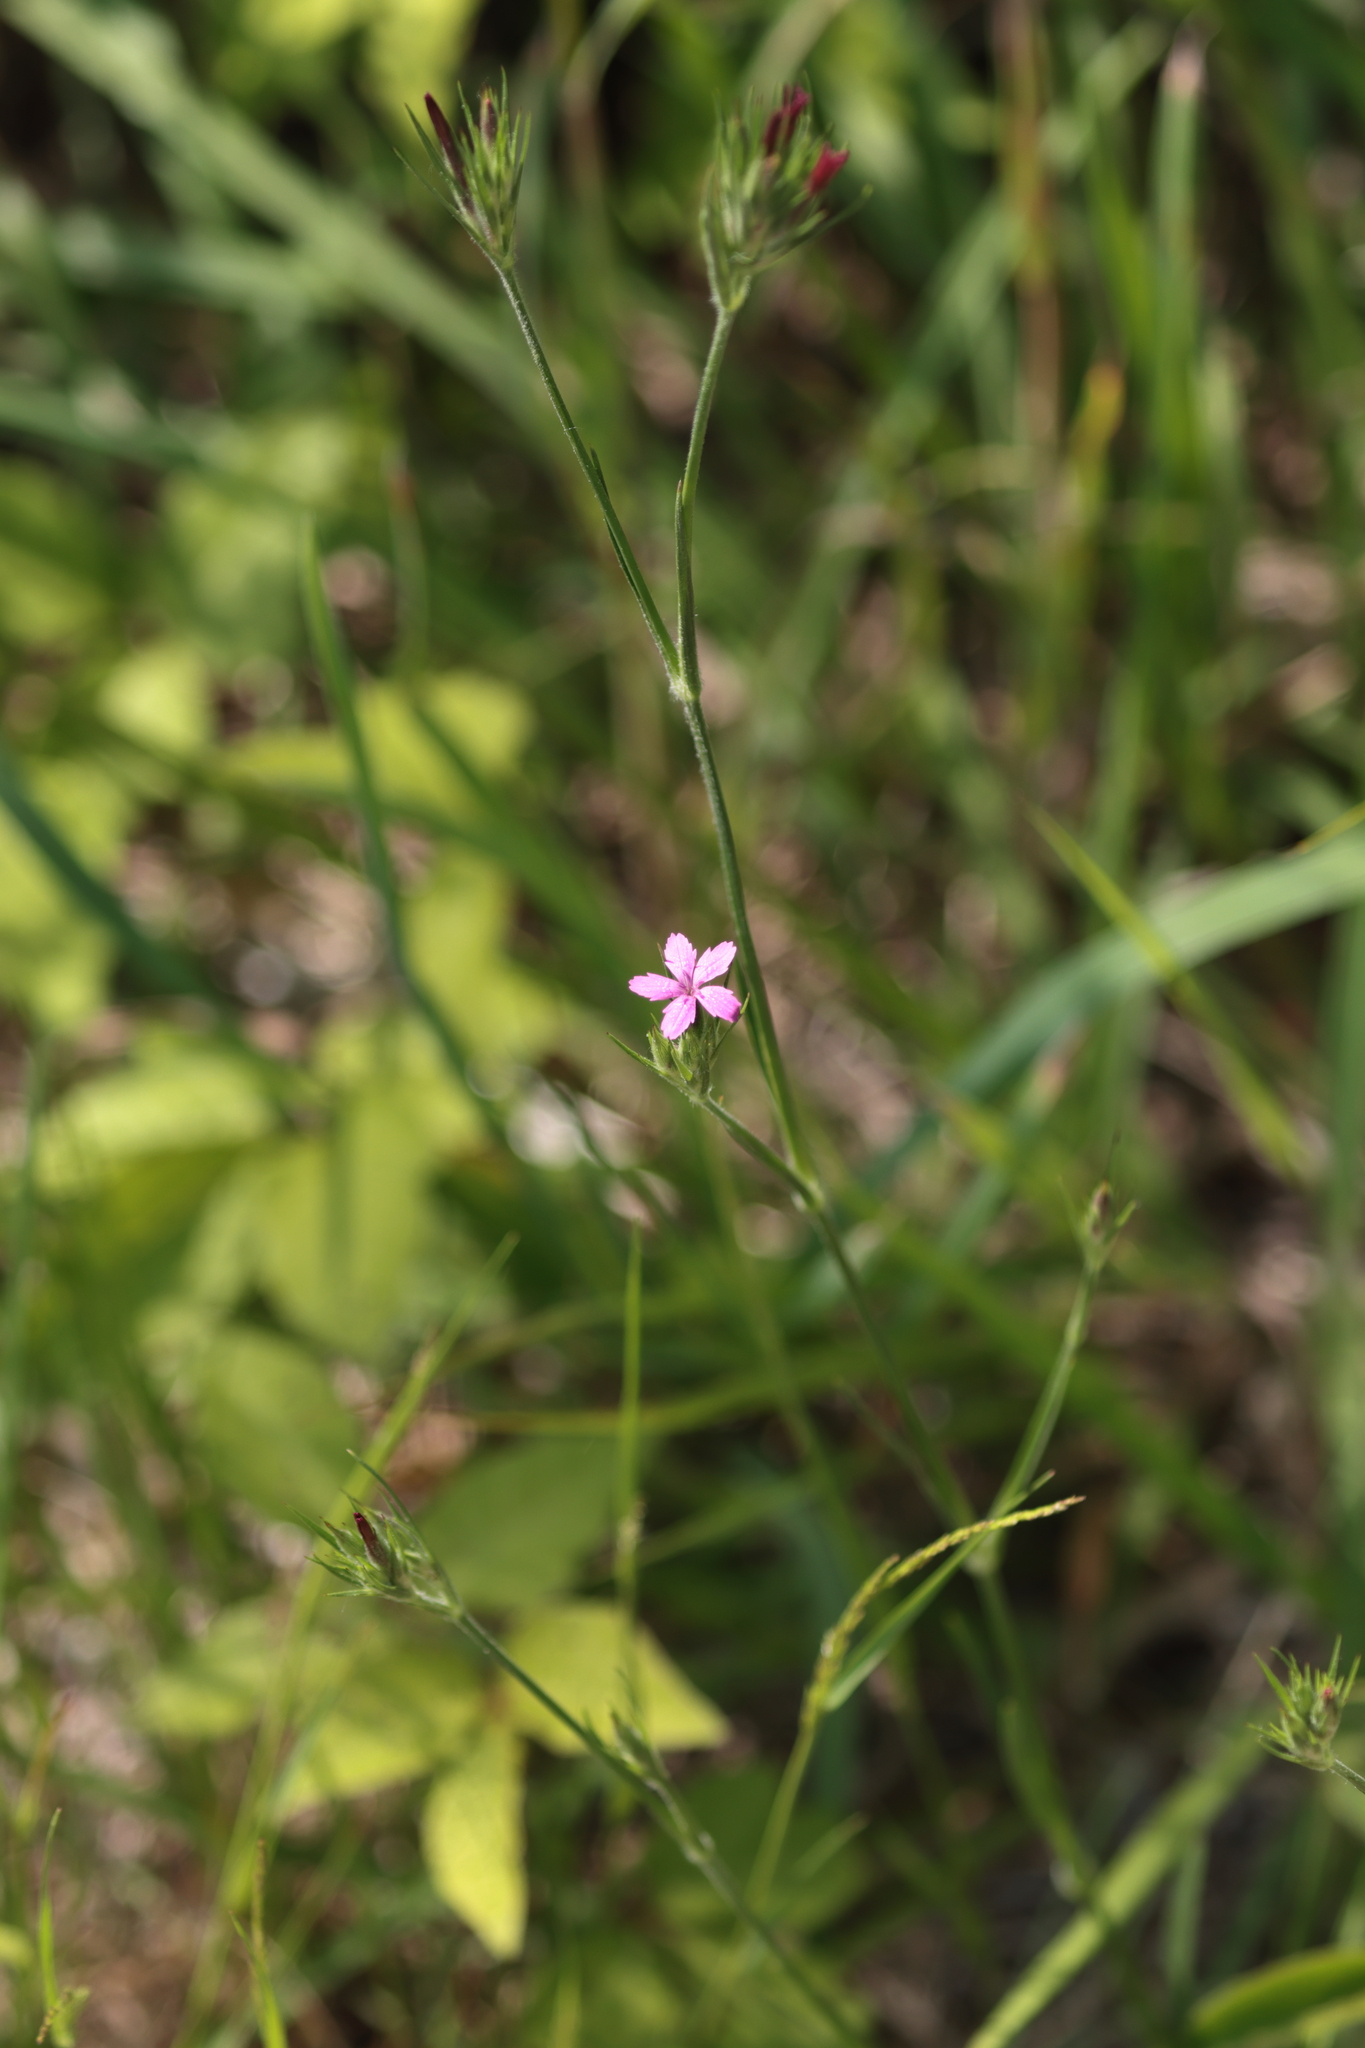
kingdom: Plantae
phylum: Tracheophyta
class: Magnoliopsida
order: Caryophyllales
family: Caryophyllaceae
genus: Dianthus
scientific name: Dianthus armeria
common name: Deptford pink
